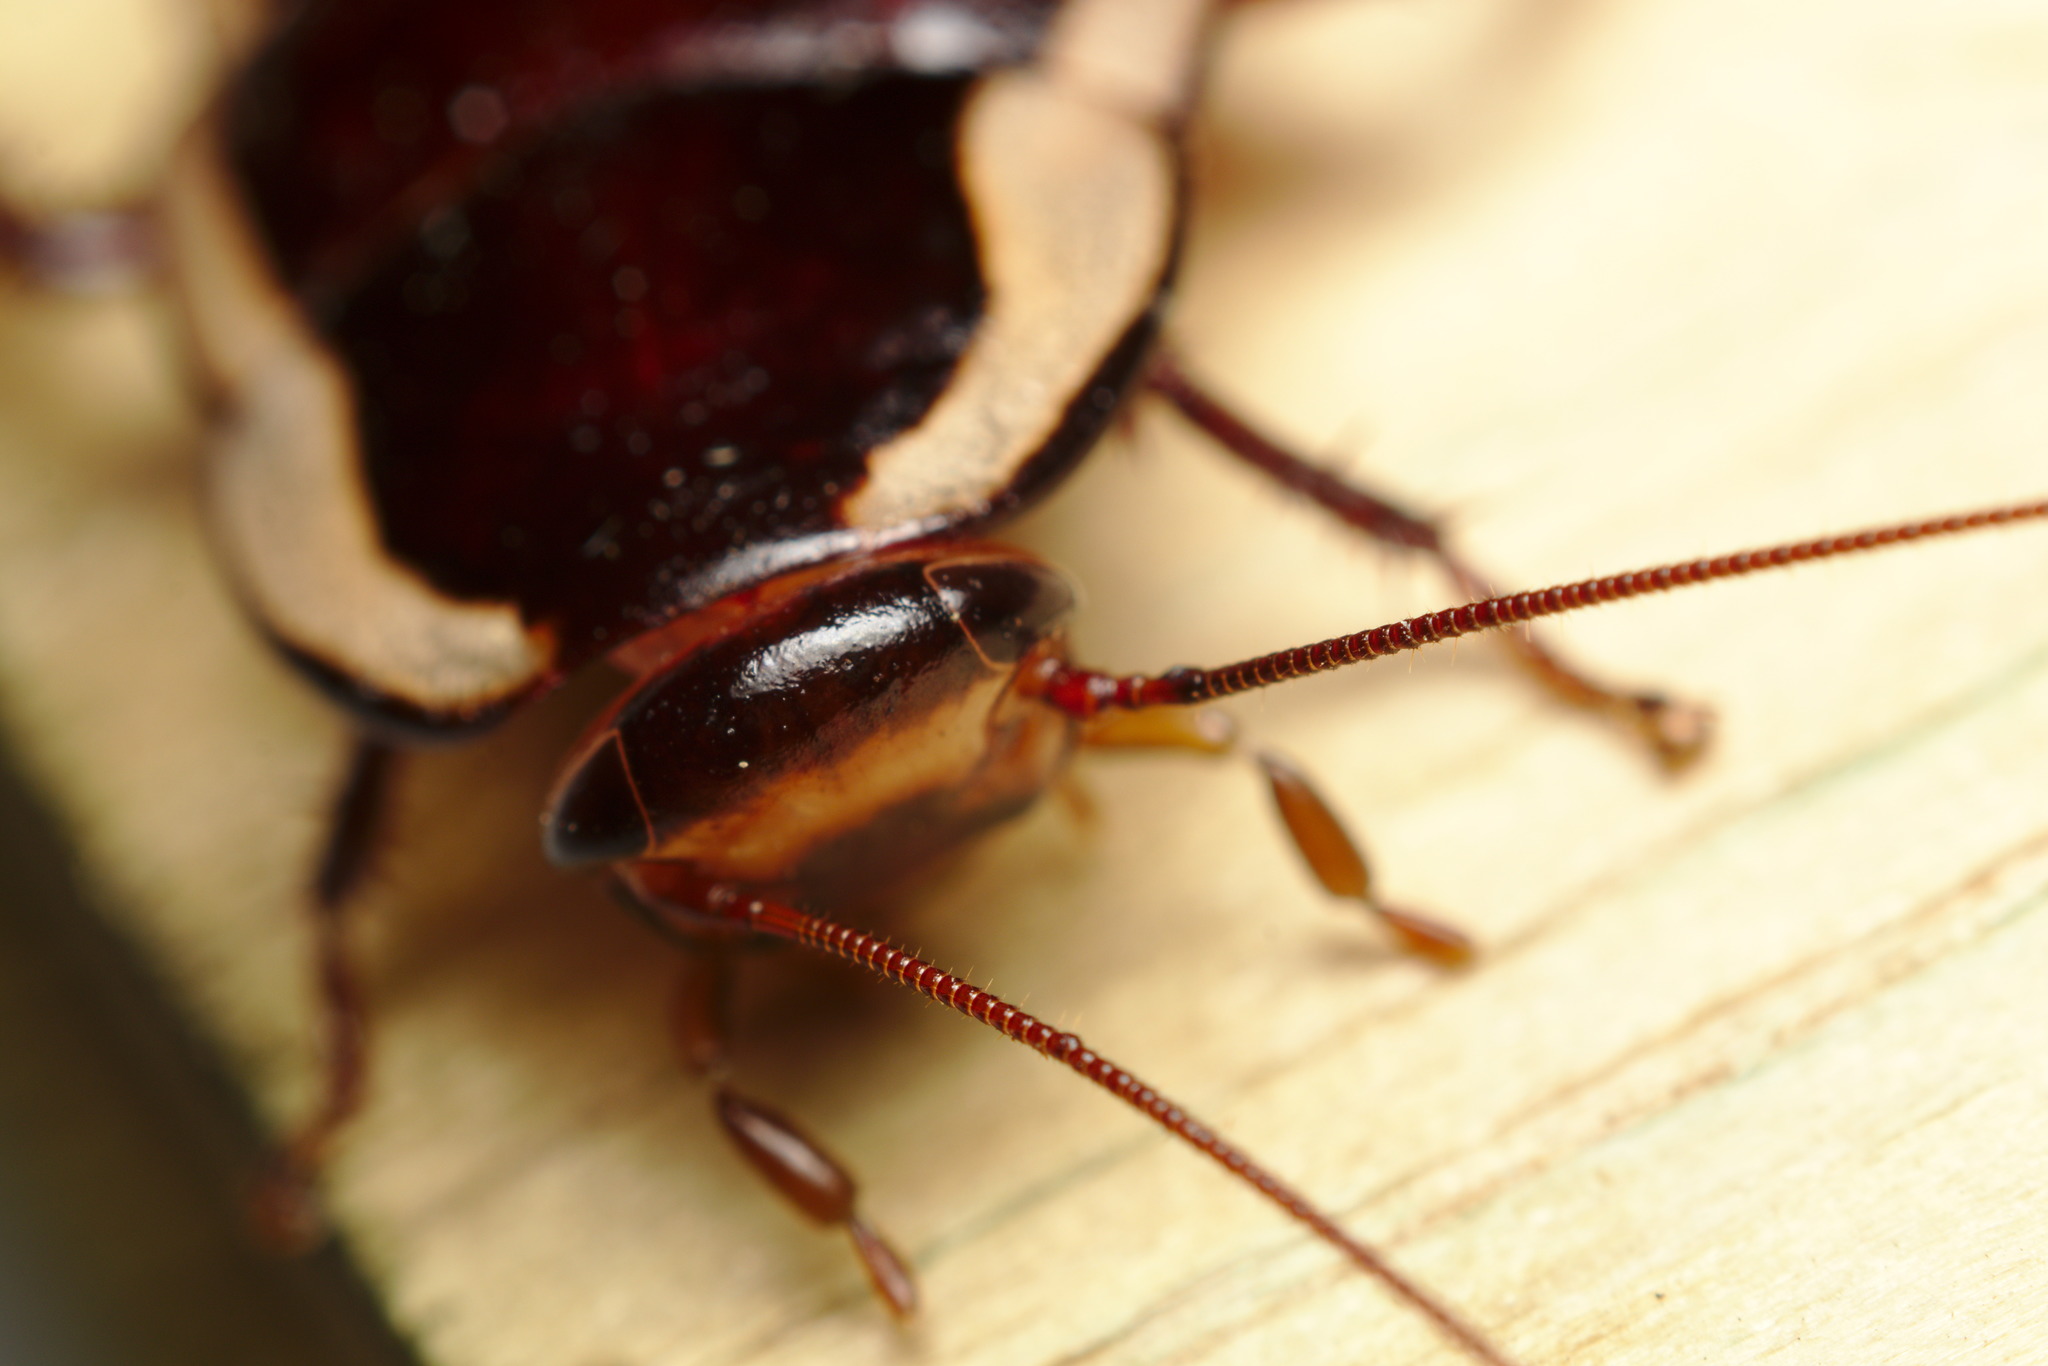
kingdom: Animalia
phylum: Arthropoda
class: Insecta
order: Blattodea
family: Blattidae
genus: Drymaplaneta
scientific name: Drymaplaneta semivitta
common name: Gisborne cockroach
